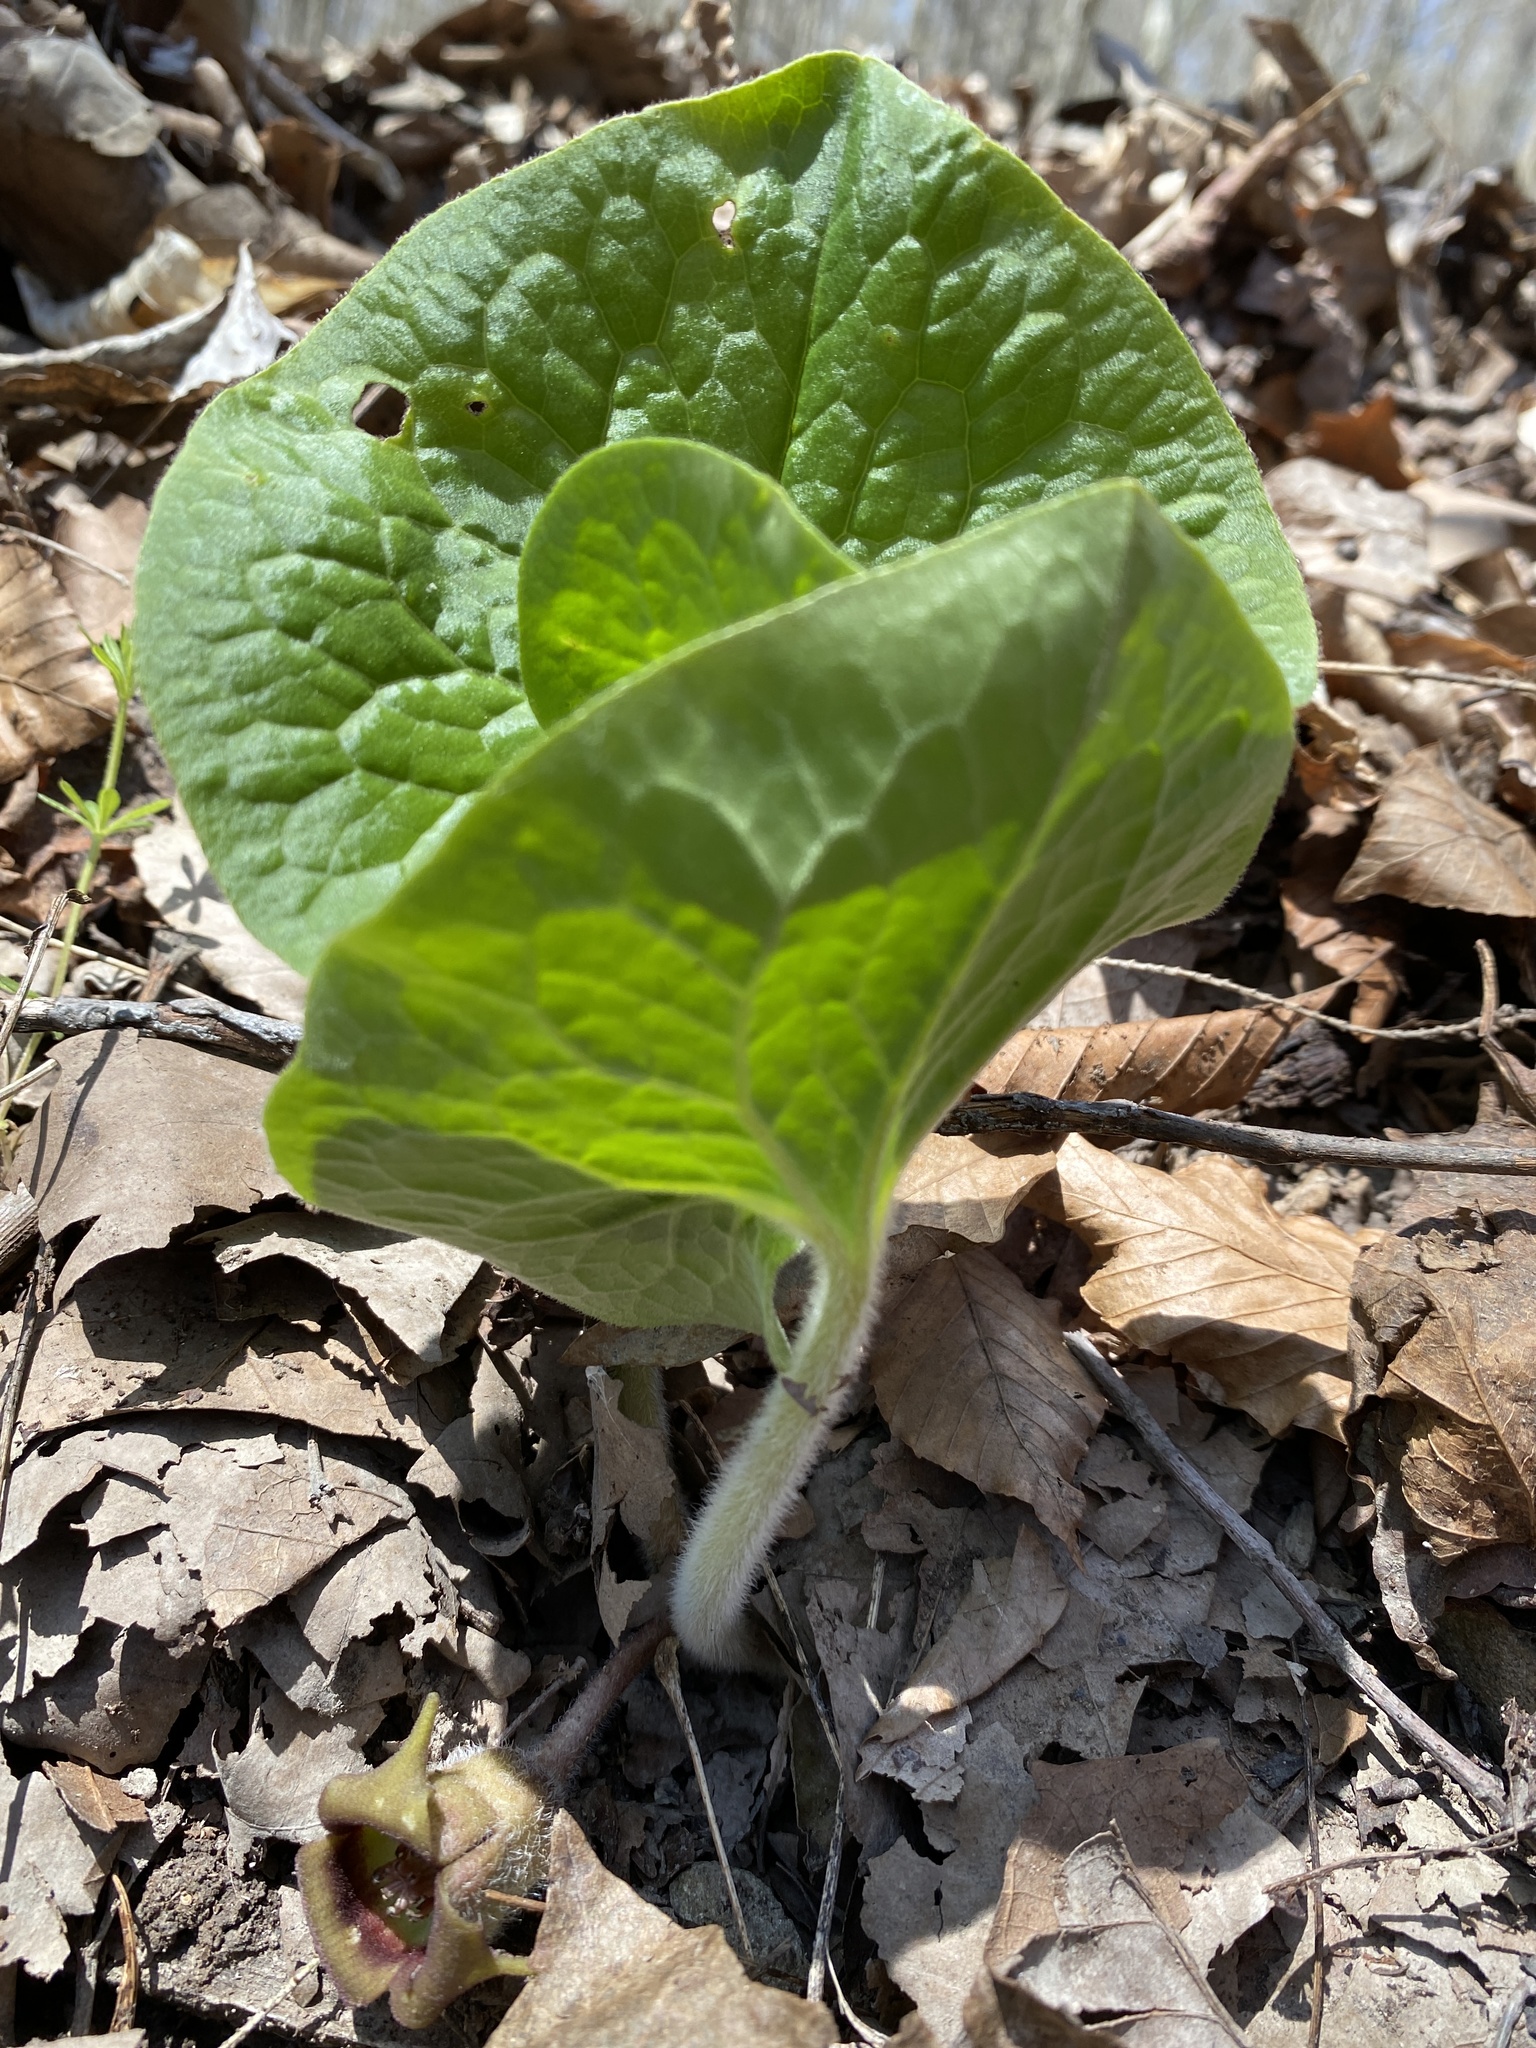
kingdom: Plantae
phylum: Tracheophyta
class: Magnoliopsida
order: Piperales
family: Aristolochiaceae
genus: Asarum
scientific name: Asarum canadense
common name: Wild ginger
